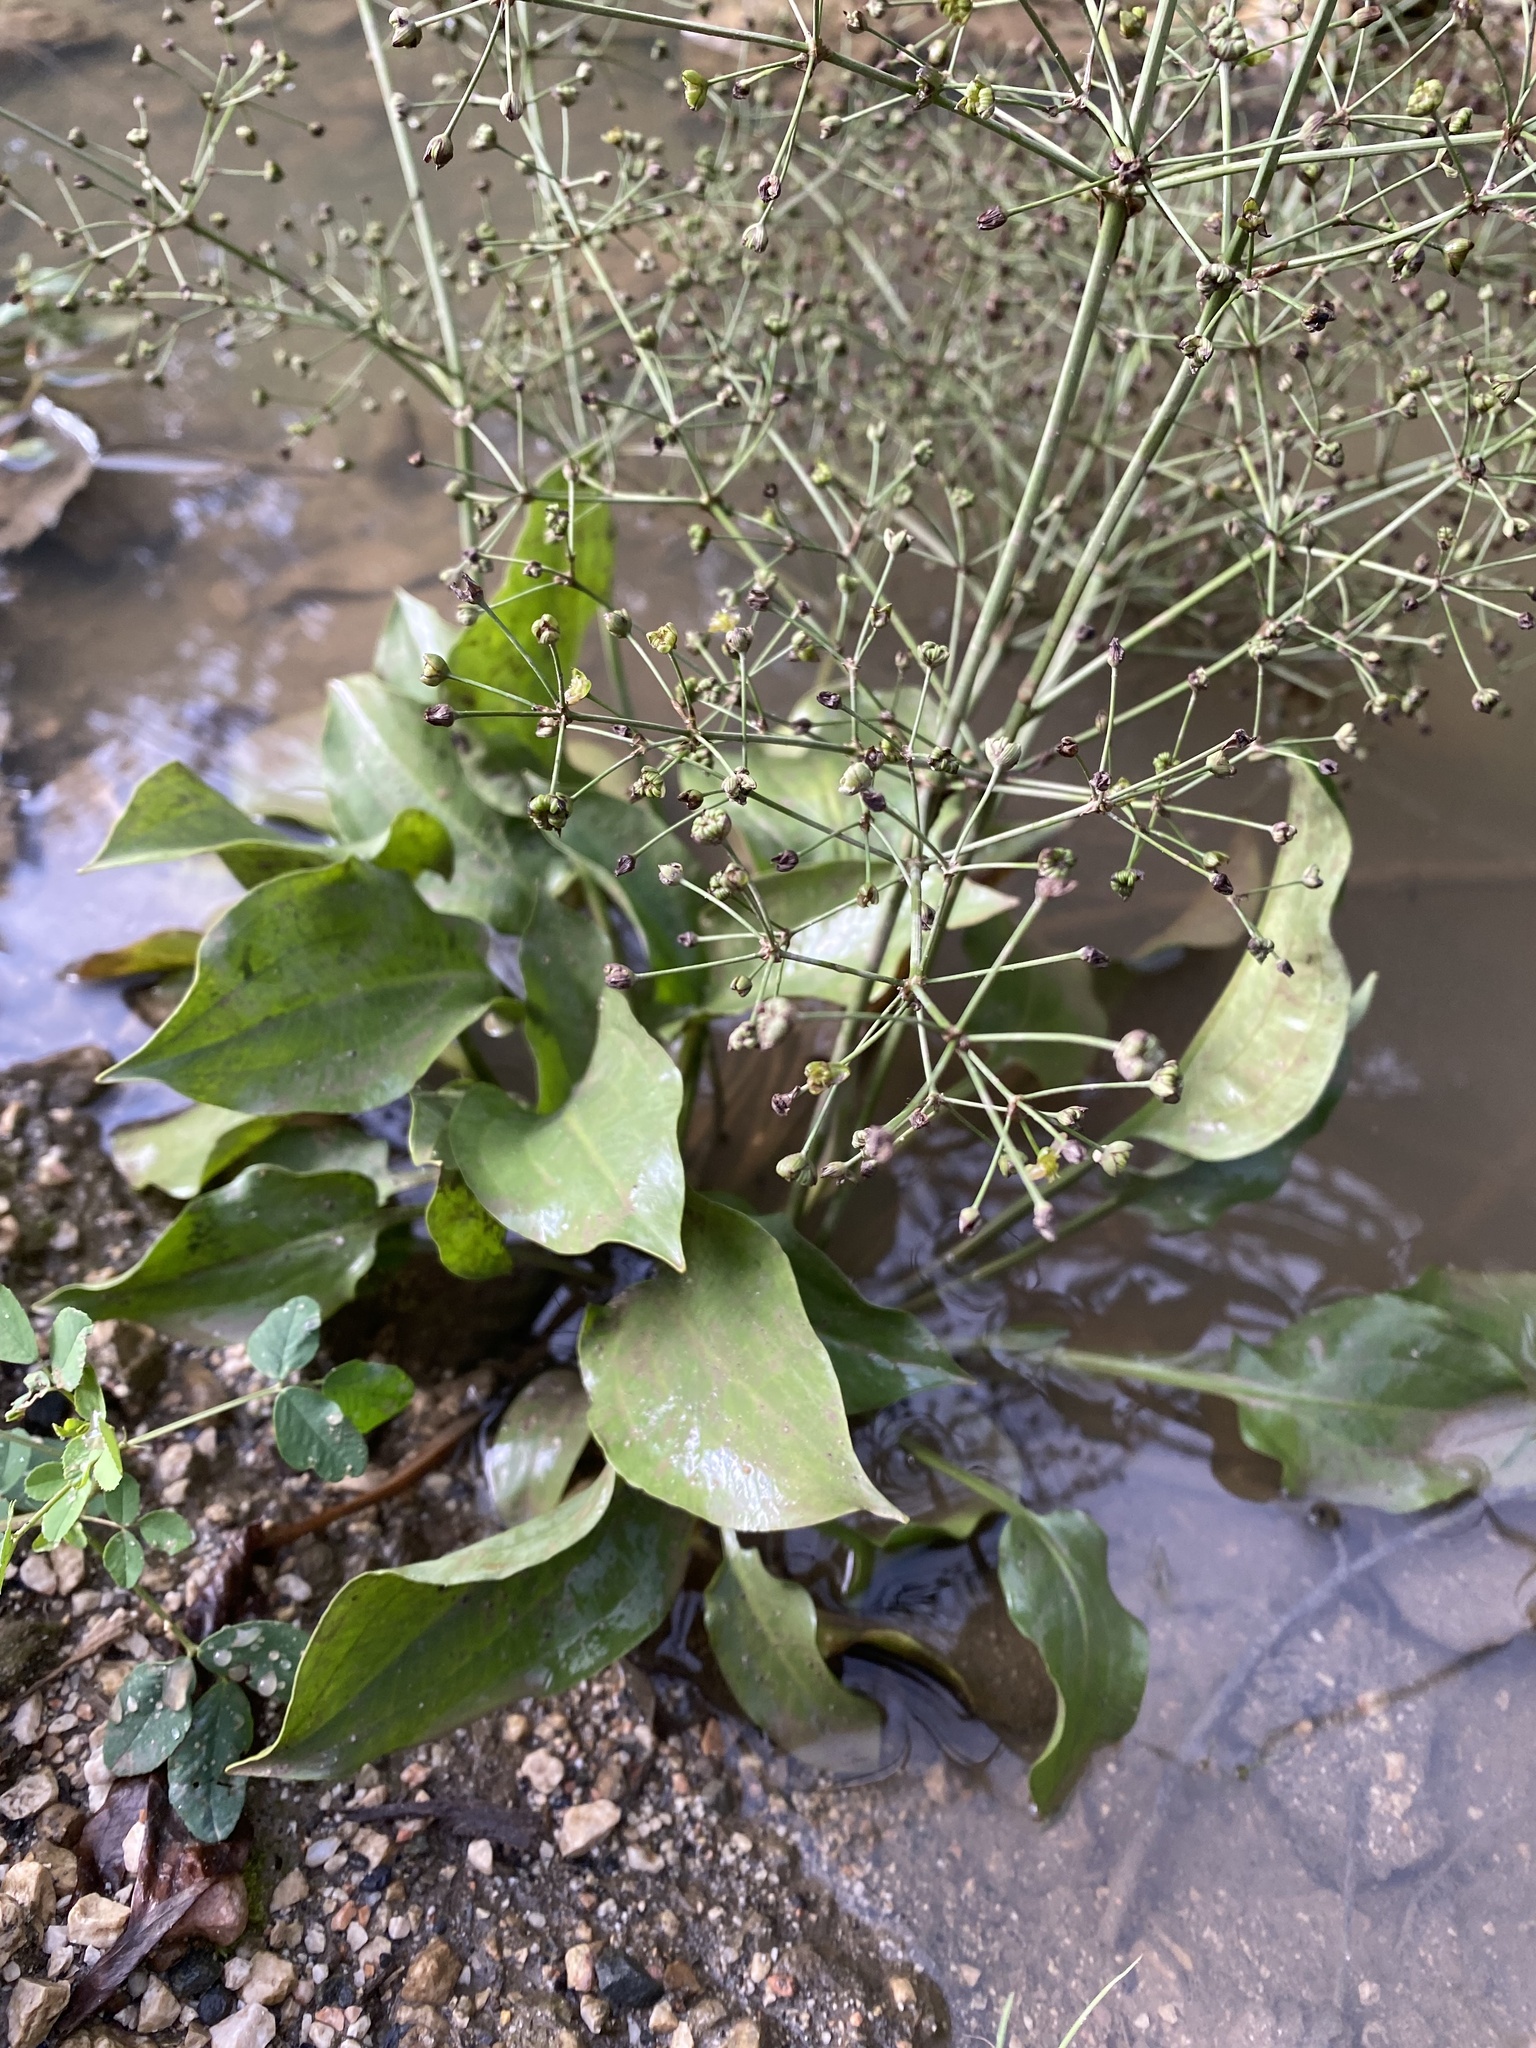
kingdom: Plantae
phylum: Tracheophyta
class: Liliopsida
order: Alismatales
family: Alismataceae
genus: Alisma
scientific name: Alisma plantago-aquatica
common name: Water-plantain
